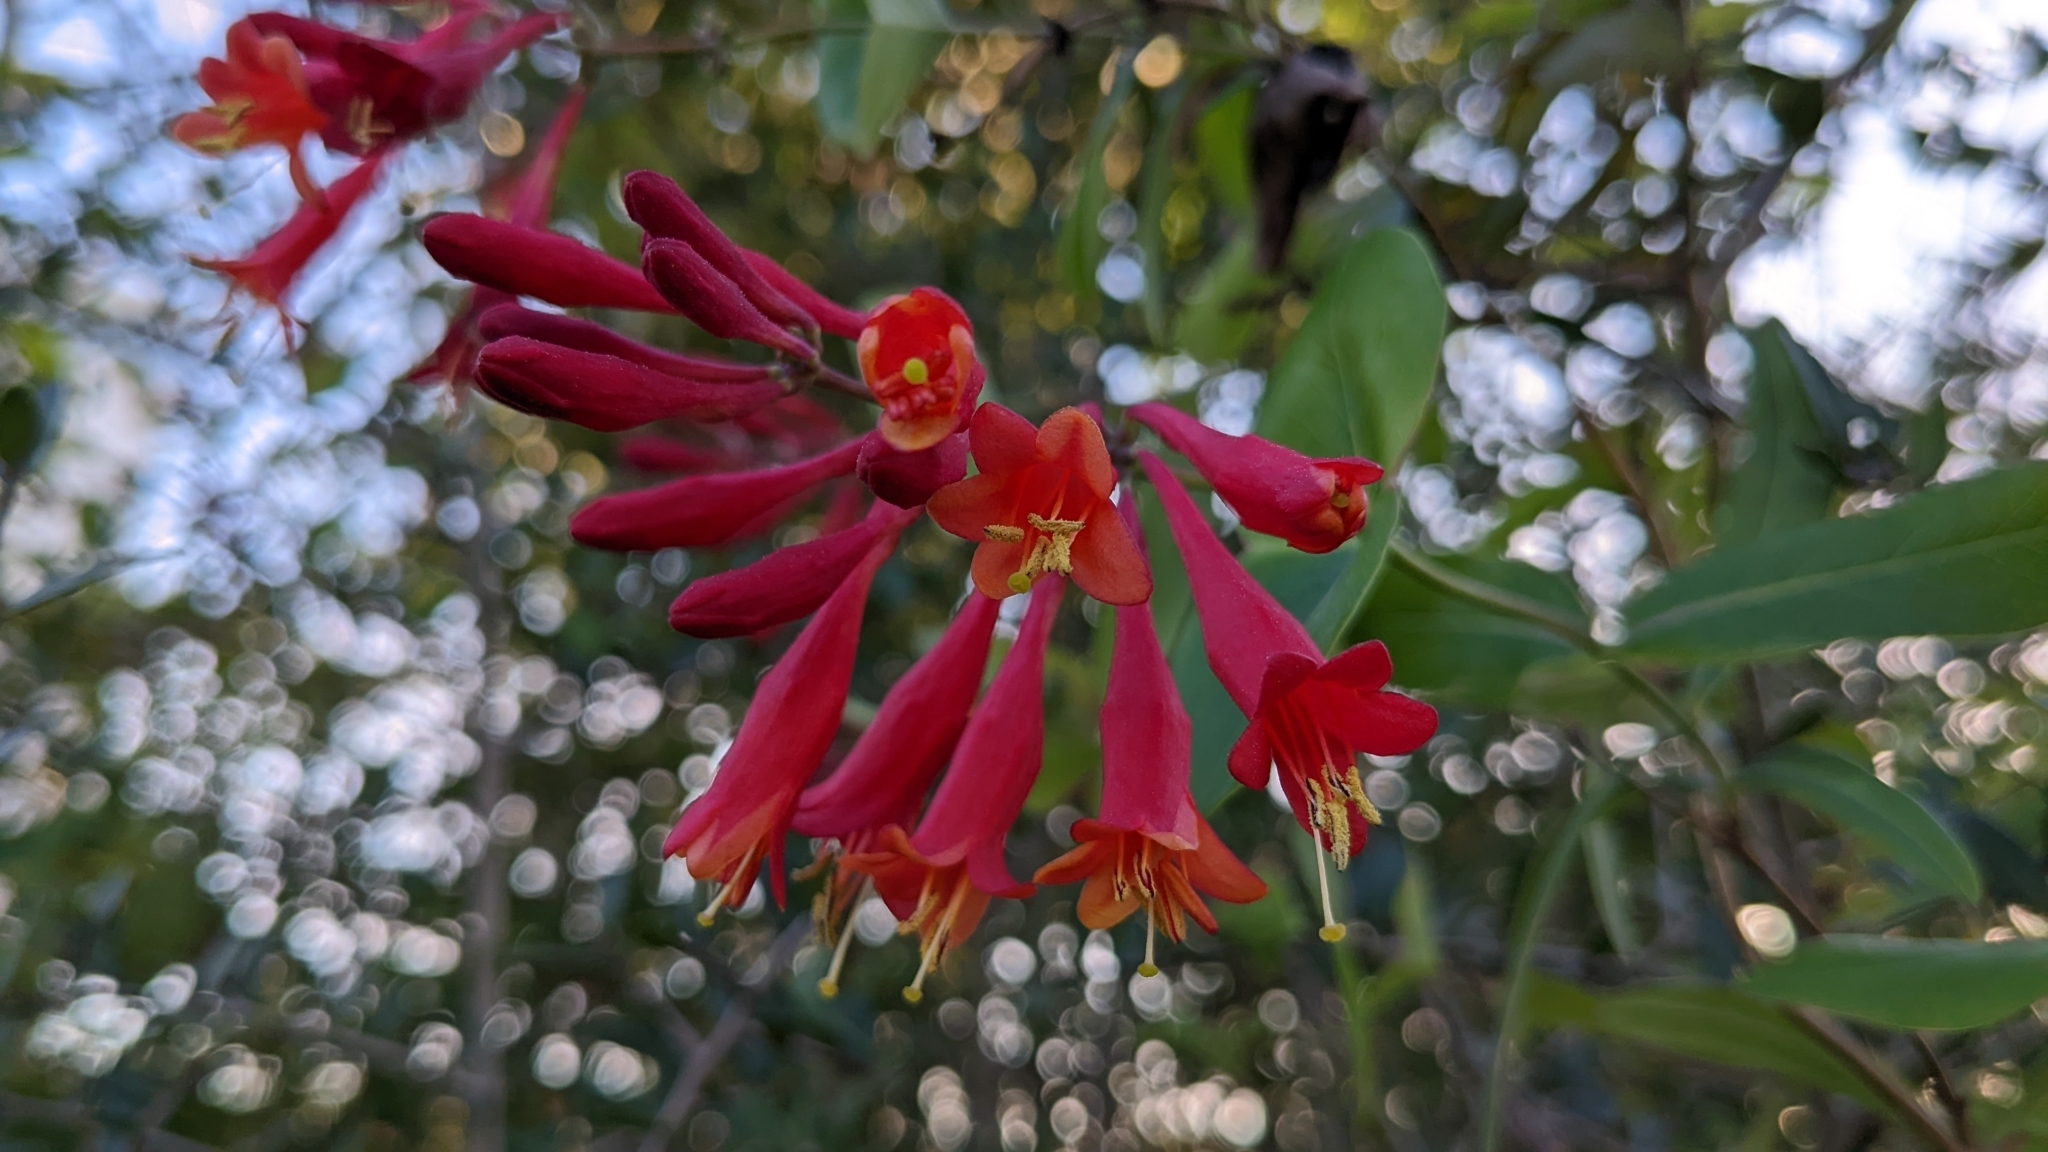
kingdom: Plantae
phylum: Tracheophyta
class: Magnoliopsida
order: Dipsacales
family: Caprifoliaceae
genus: Lonicera
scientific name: Lonicera sempervirens
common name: Coral honeysuckle
